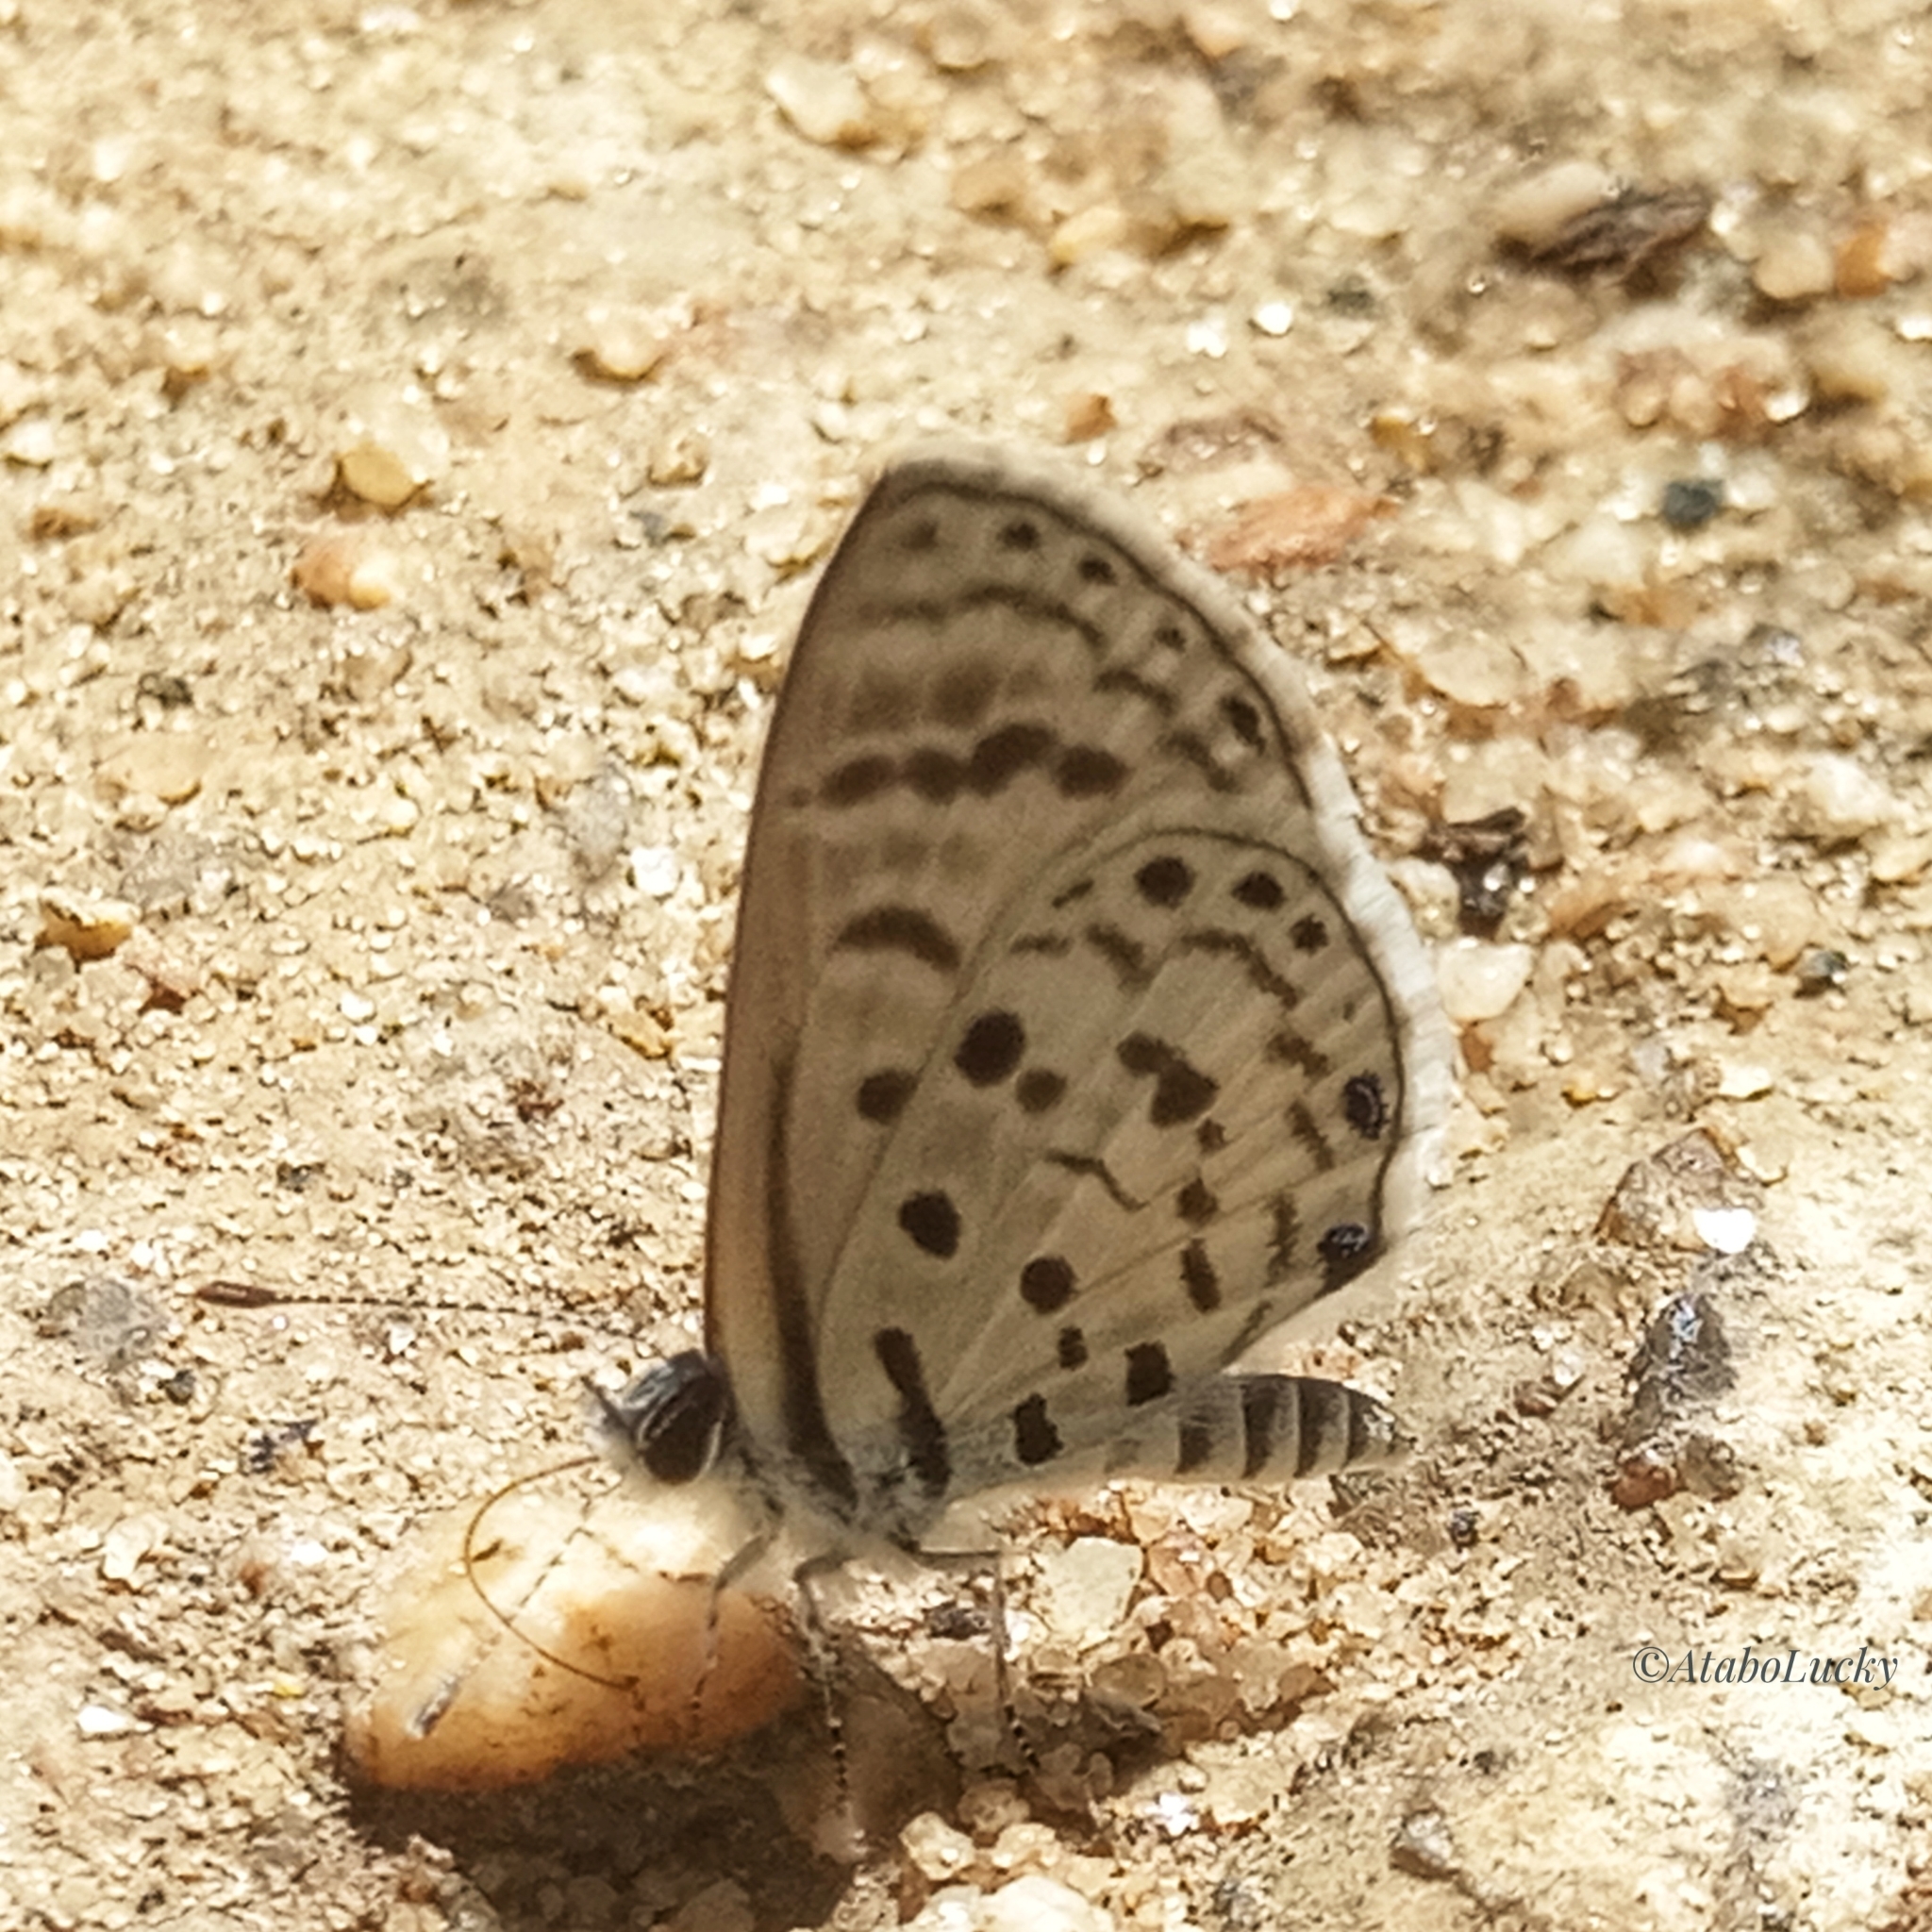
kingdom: Animalia
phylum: Arthropoda
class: Insecta
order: Lepidoptera
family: Lycaenidae
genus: Azanus
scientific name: Azanus moriqua
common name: Thorn-tree babul blue
